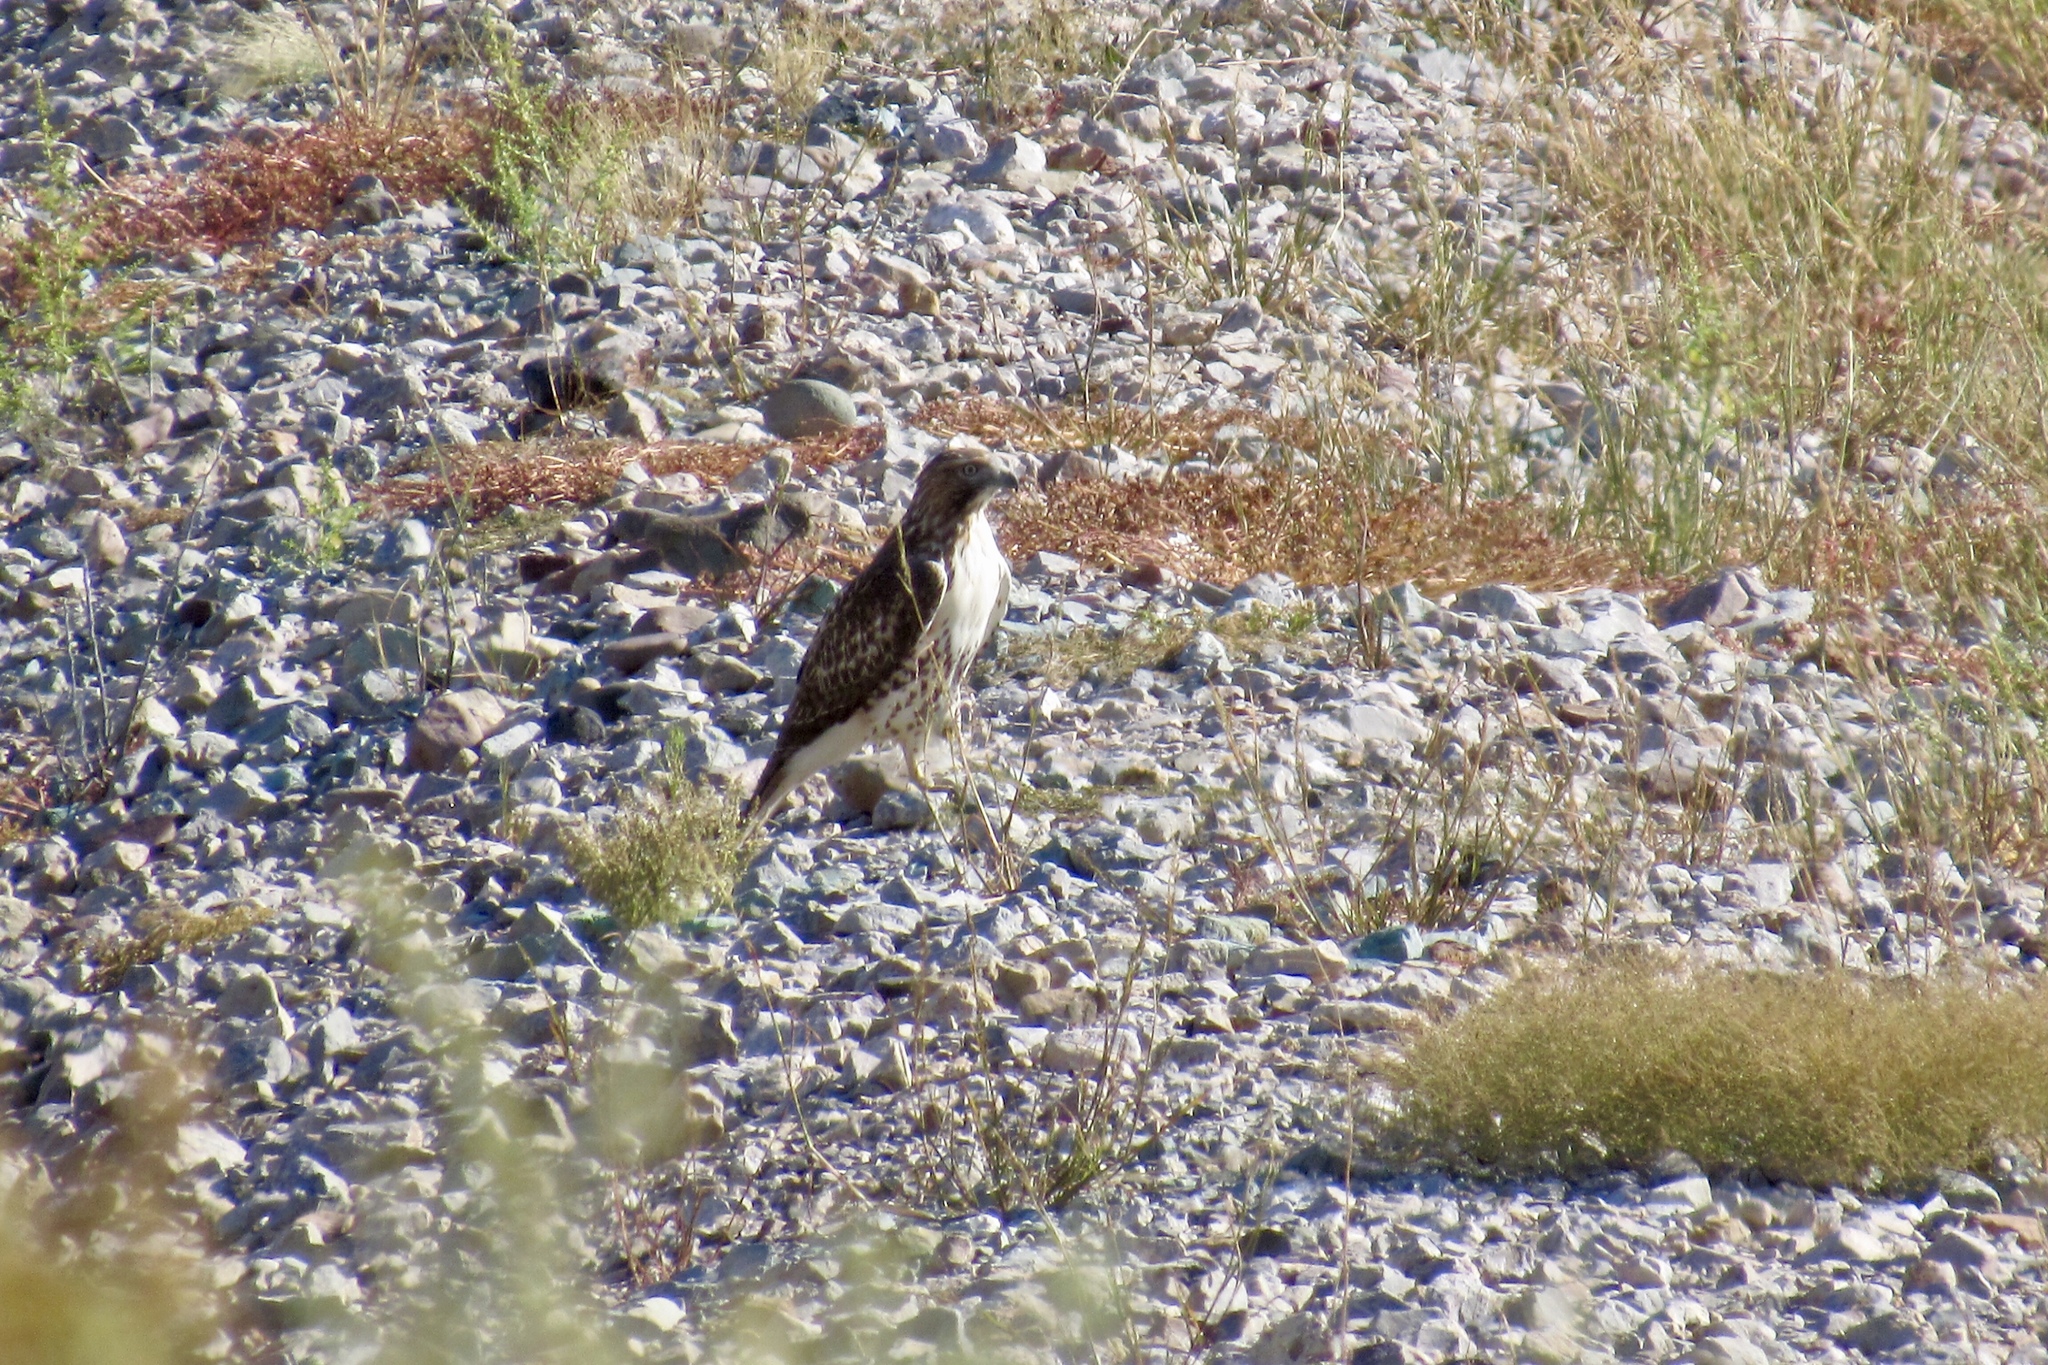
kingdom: Animalia
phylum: Chordata
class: Aves
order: Accipitriformes
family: Accipitridae
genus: Buteo
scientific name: Buteo jamaicensis
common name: Red-tailed hawk
